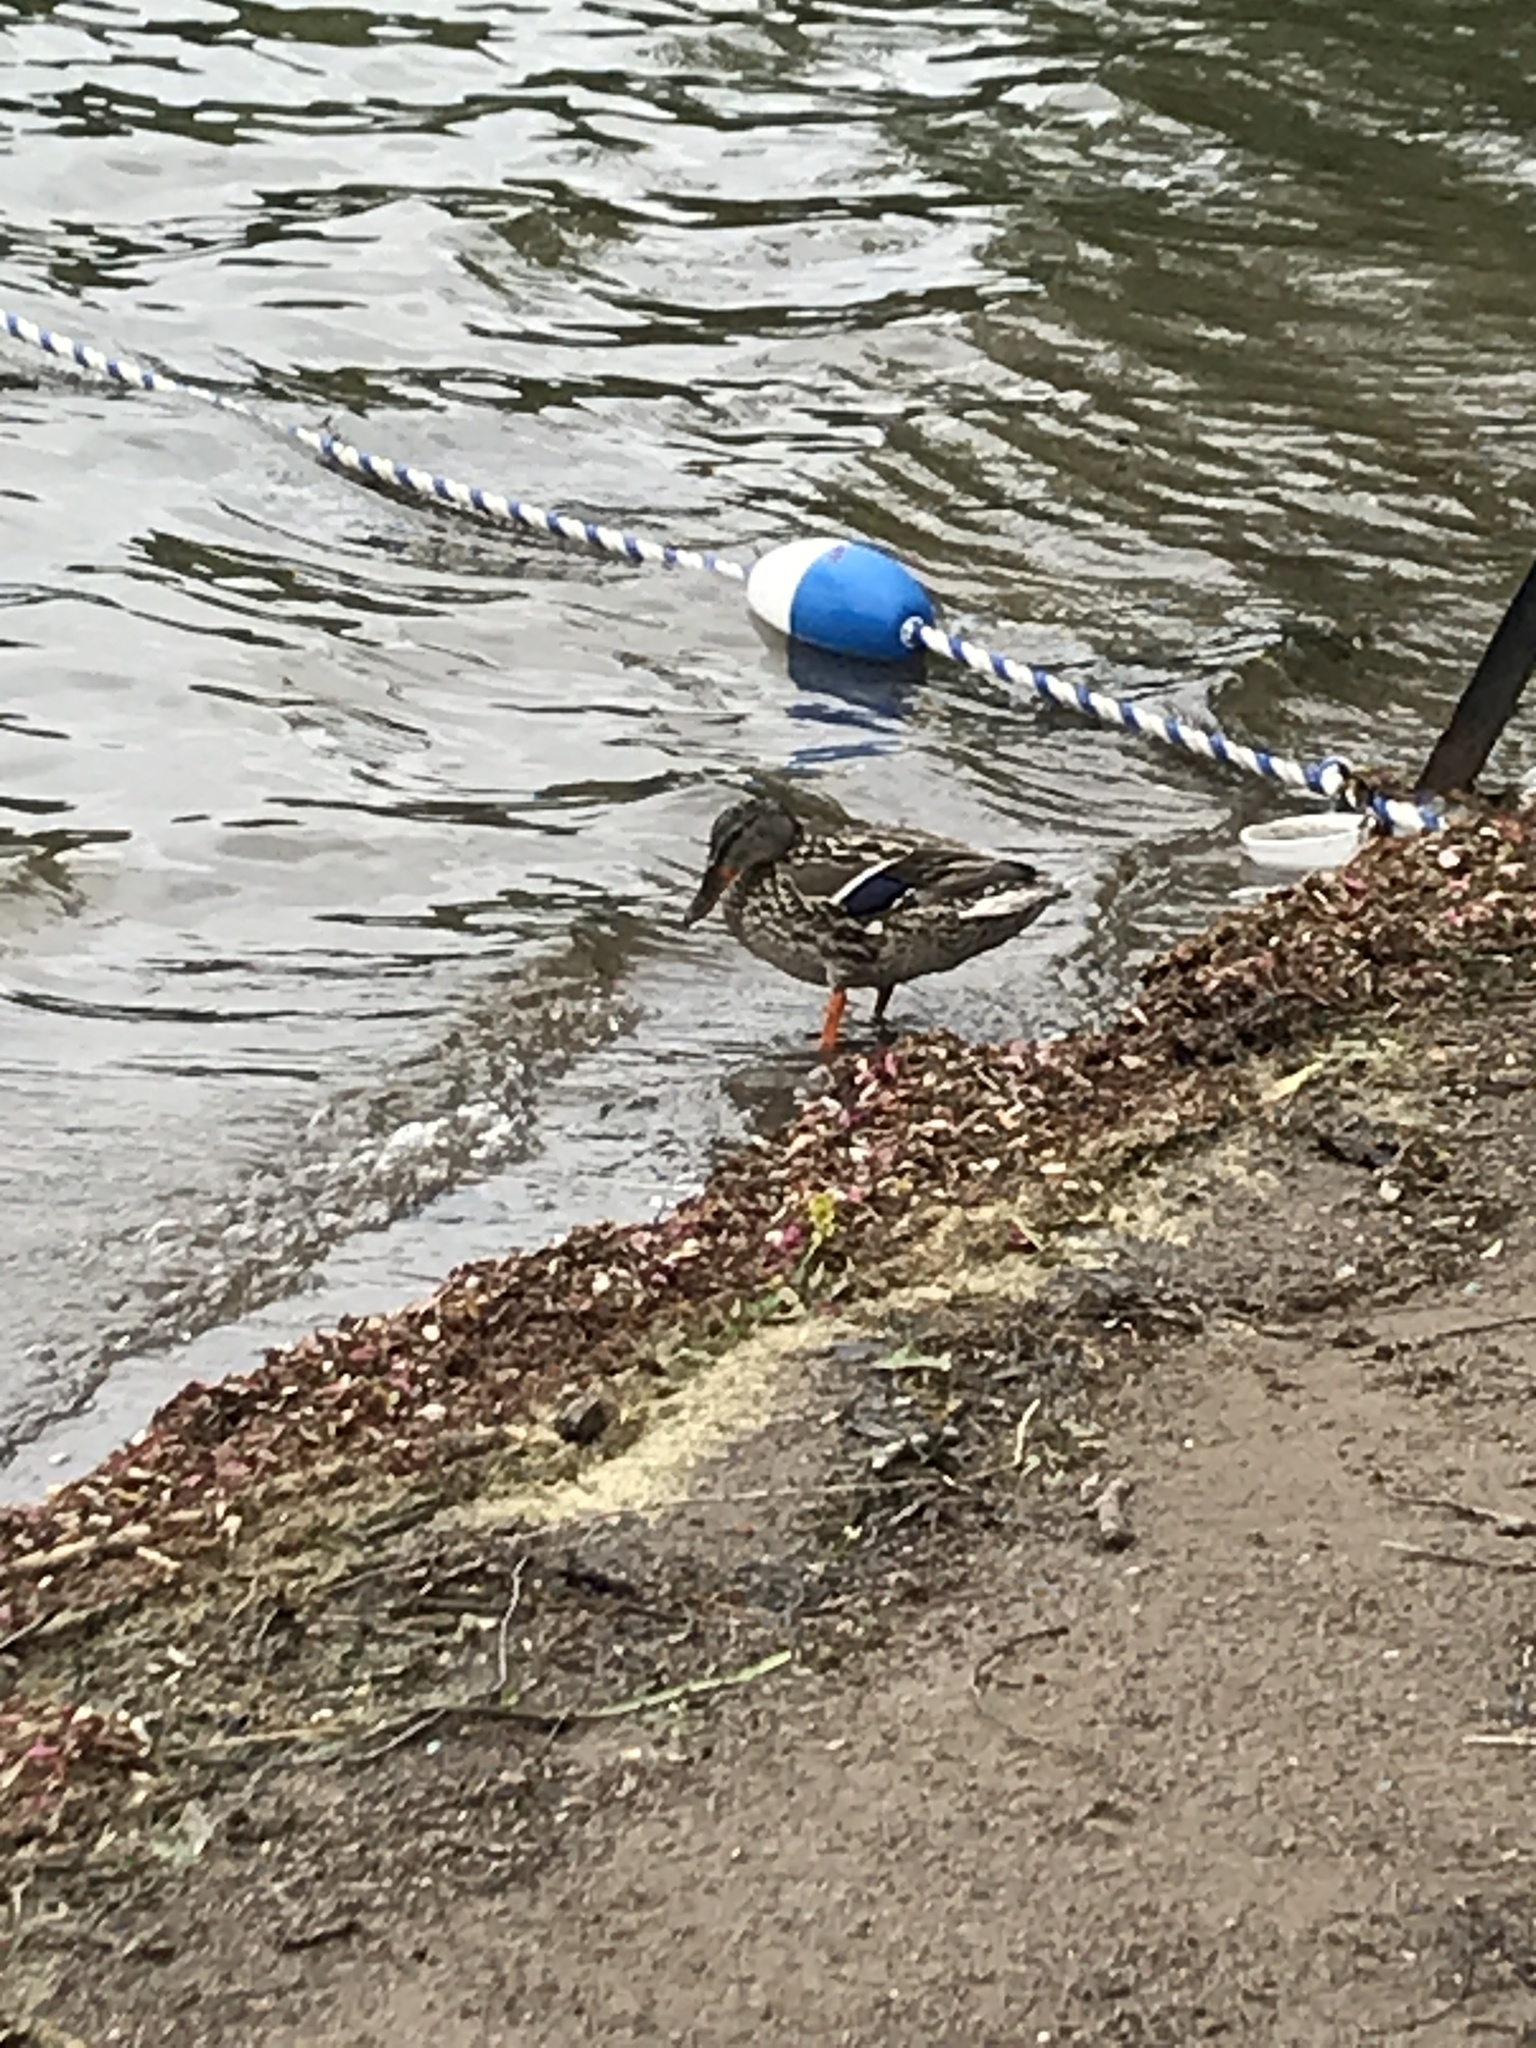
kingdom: Animalia
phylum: Chordata
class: Aves
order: Anseriformes
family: Anatidae
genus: Anas
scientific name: Anas platyrhynchos
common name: Mallard
